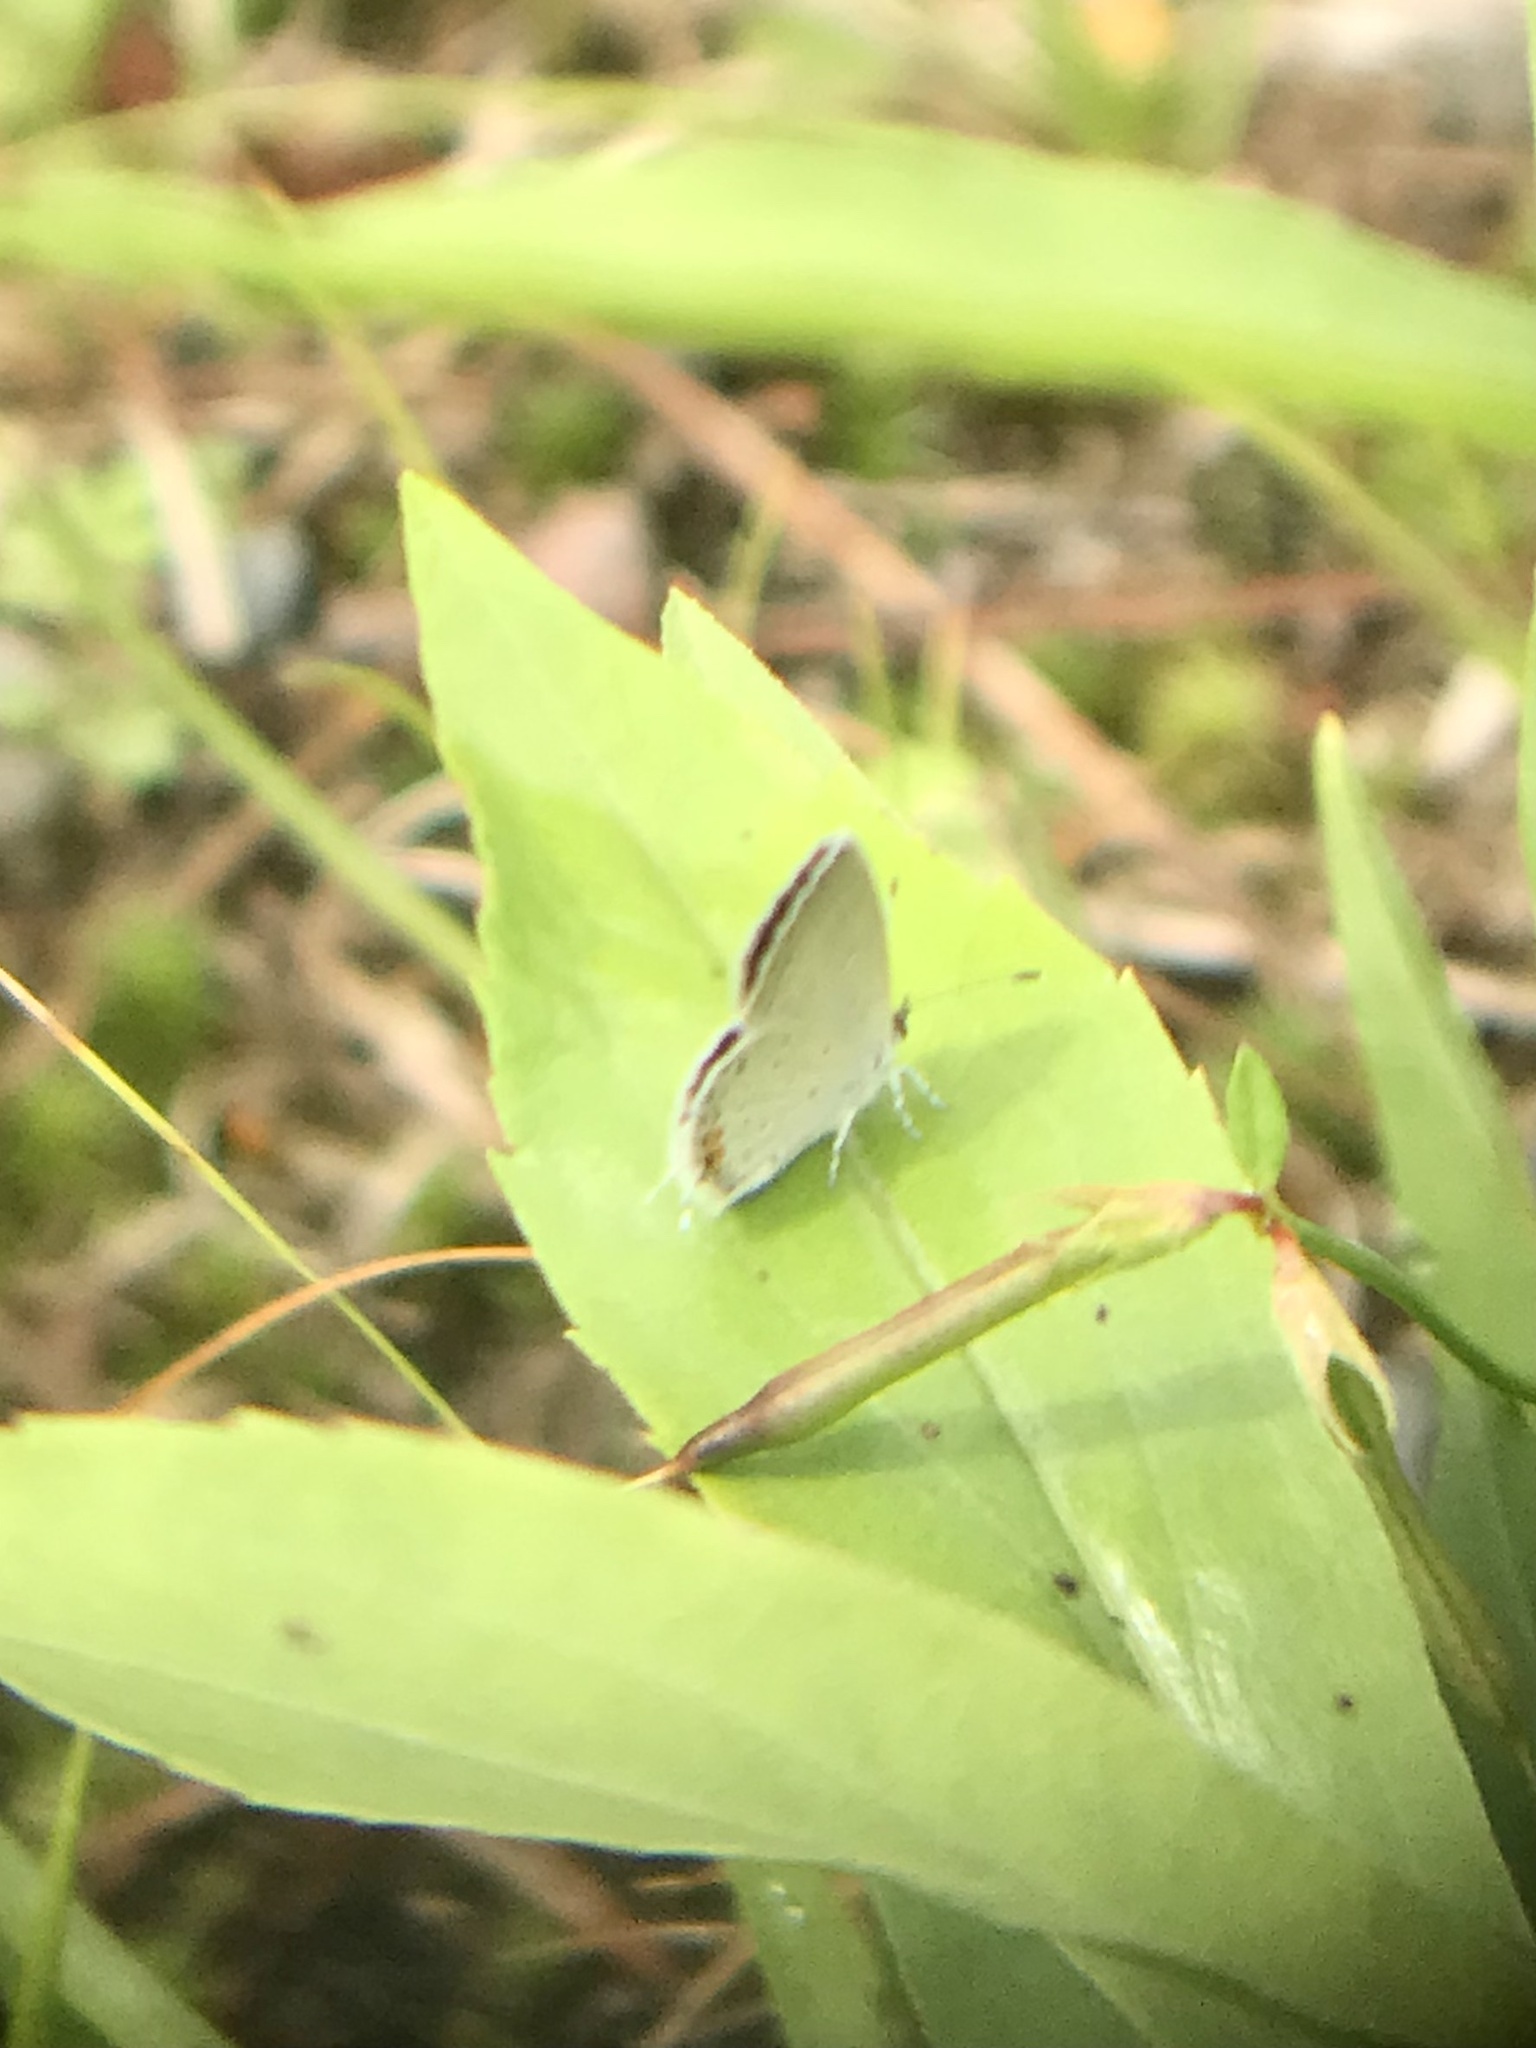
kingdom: Animalia
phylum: Arthropoda
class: Insecta
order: Lepidoptera
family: Lycaenidae
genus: Elkalyce
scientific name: Elkalyce comyntas
